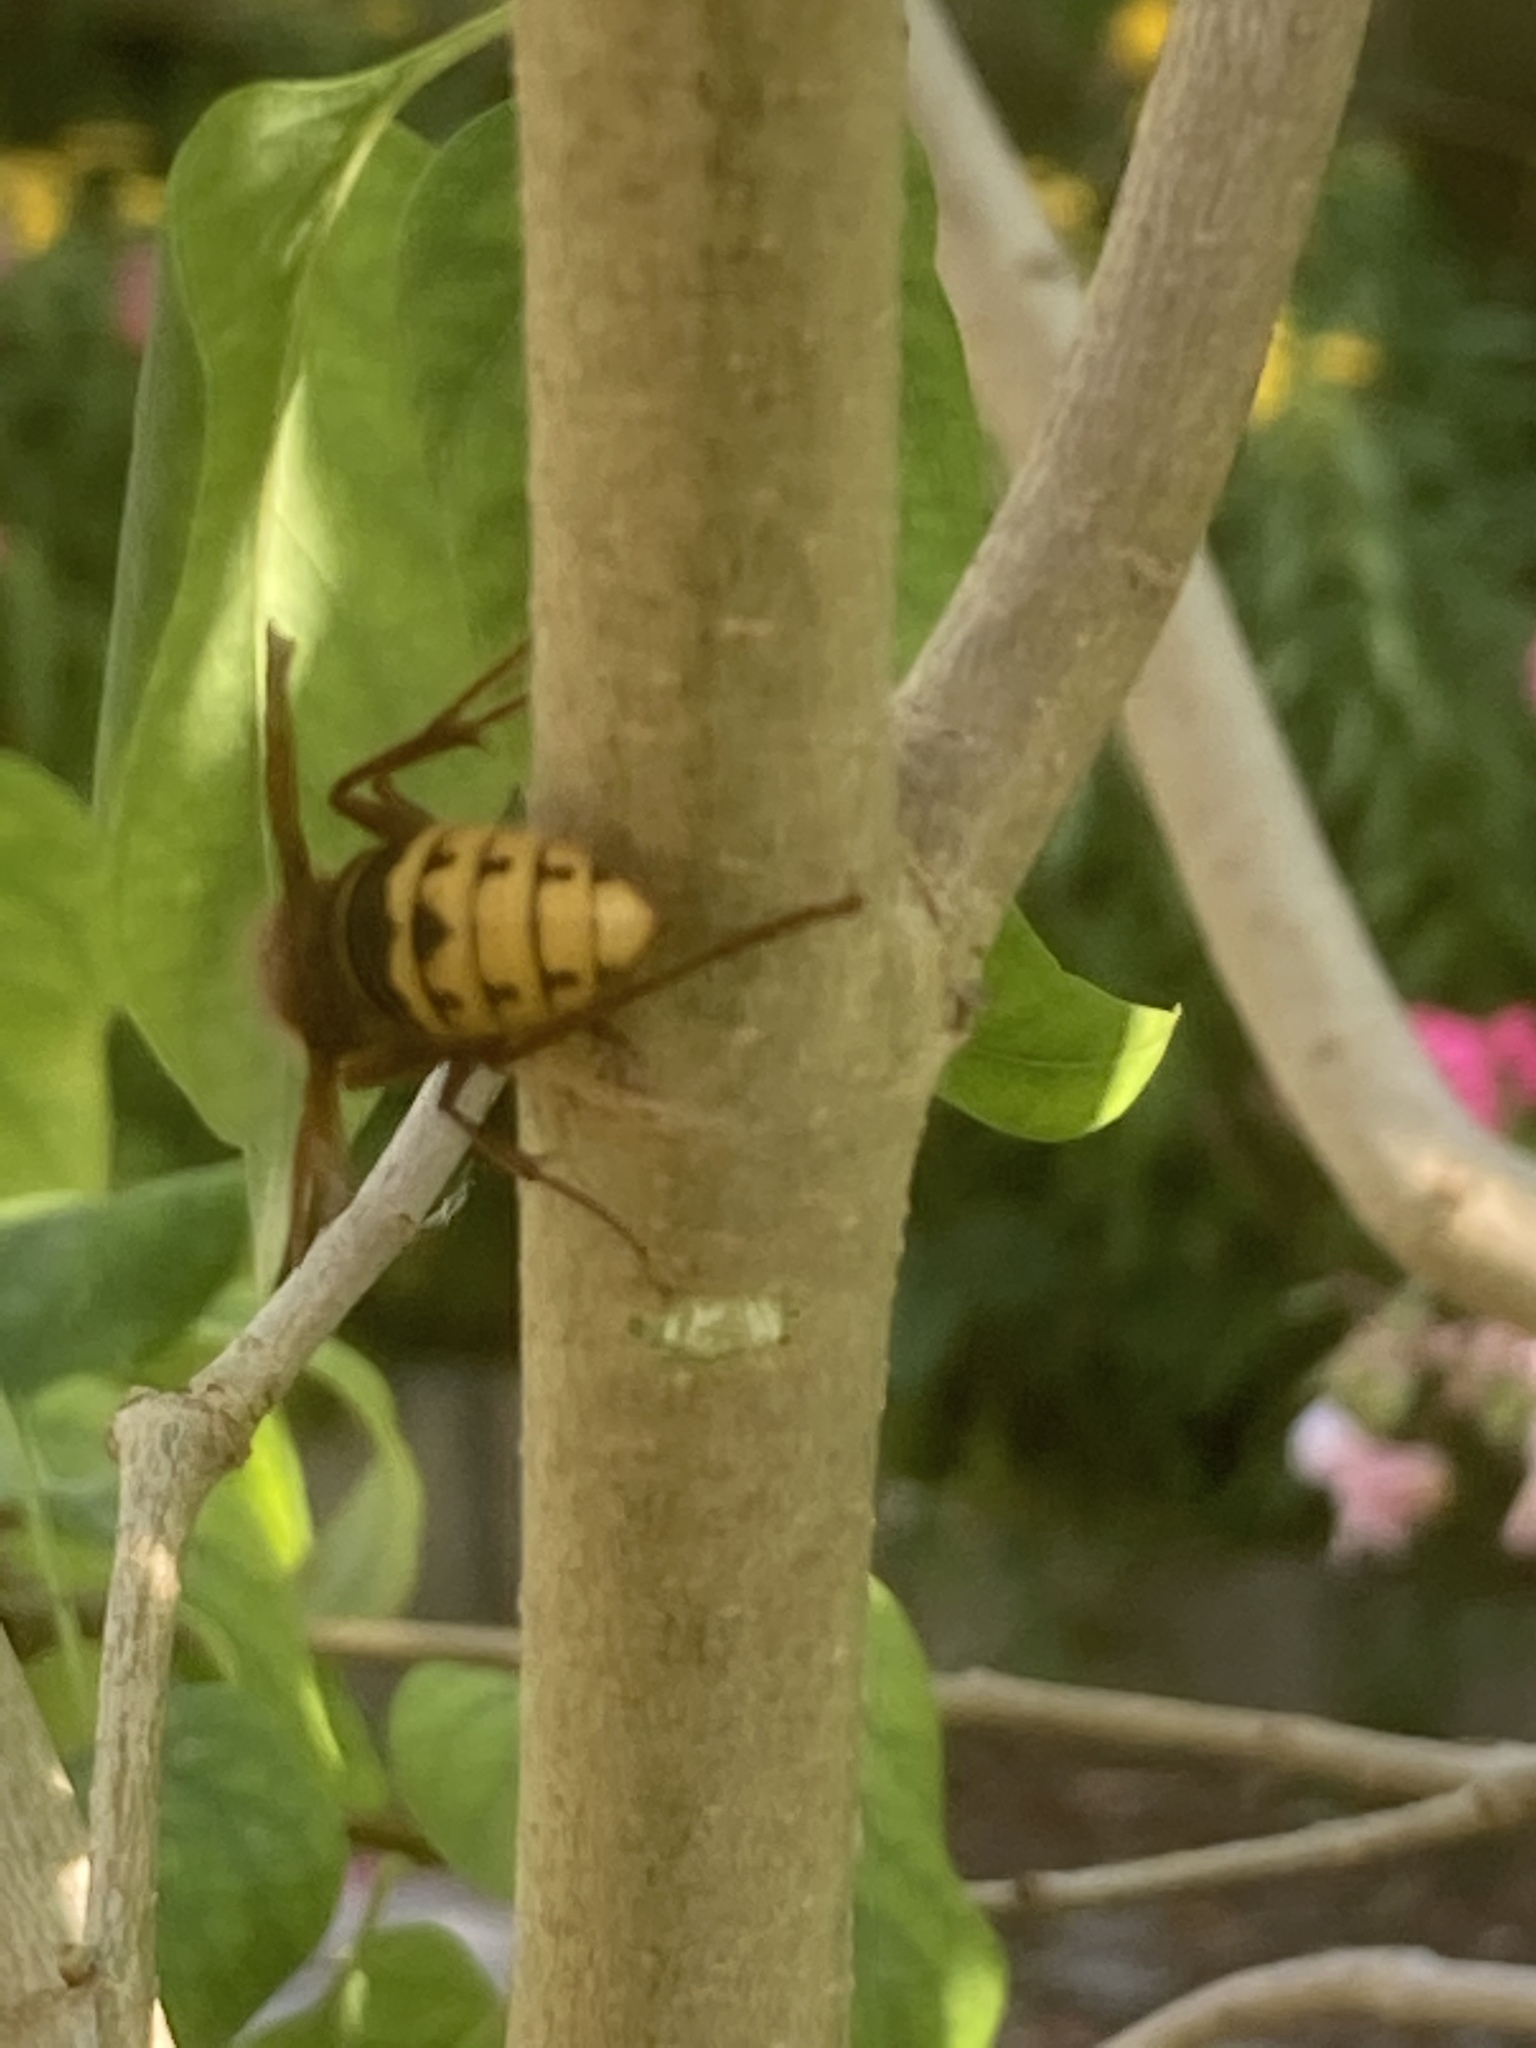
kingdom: Animalia
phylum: Arthropoda
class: Insecta
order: Hymenoptera
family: Vespidae
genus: Vespa
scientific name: Vespa crabro
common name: Hornet
